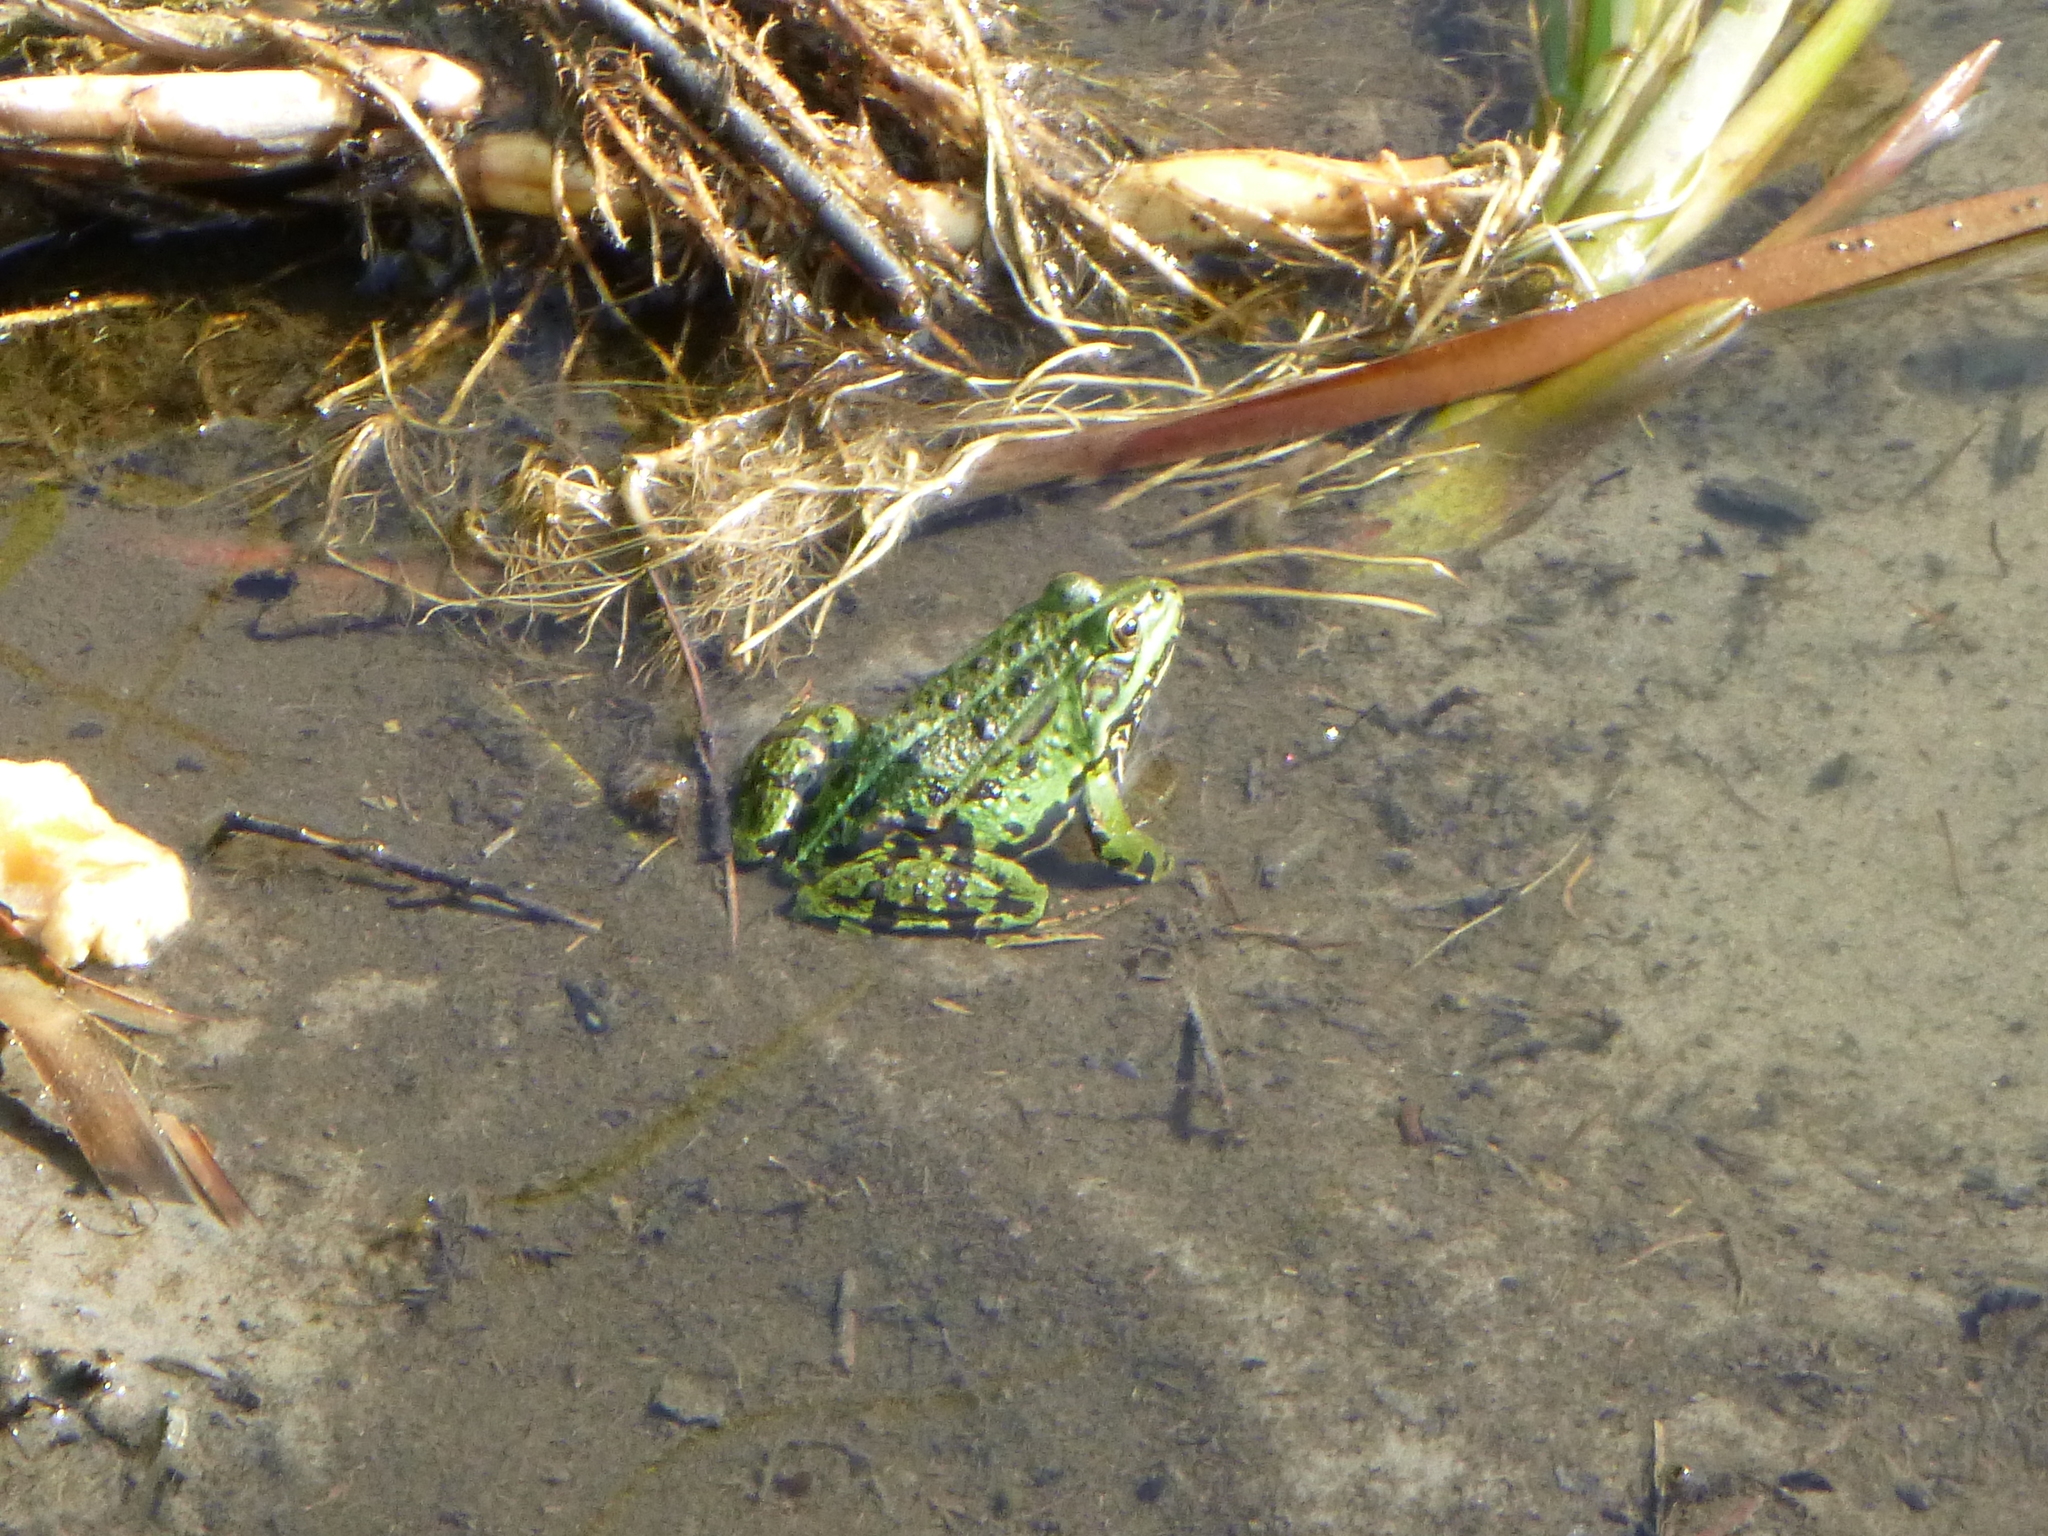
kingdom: Animalia
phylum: Chordata
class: Amphibia
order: Anura
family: Ranidae
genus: Pelophylax
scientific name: Pelophylax
